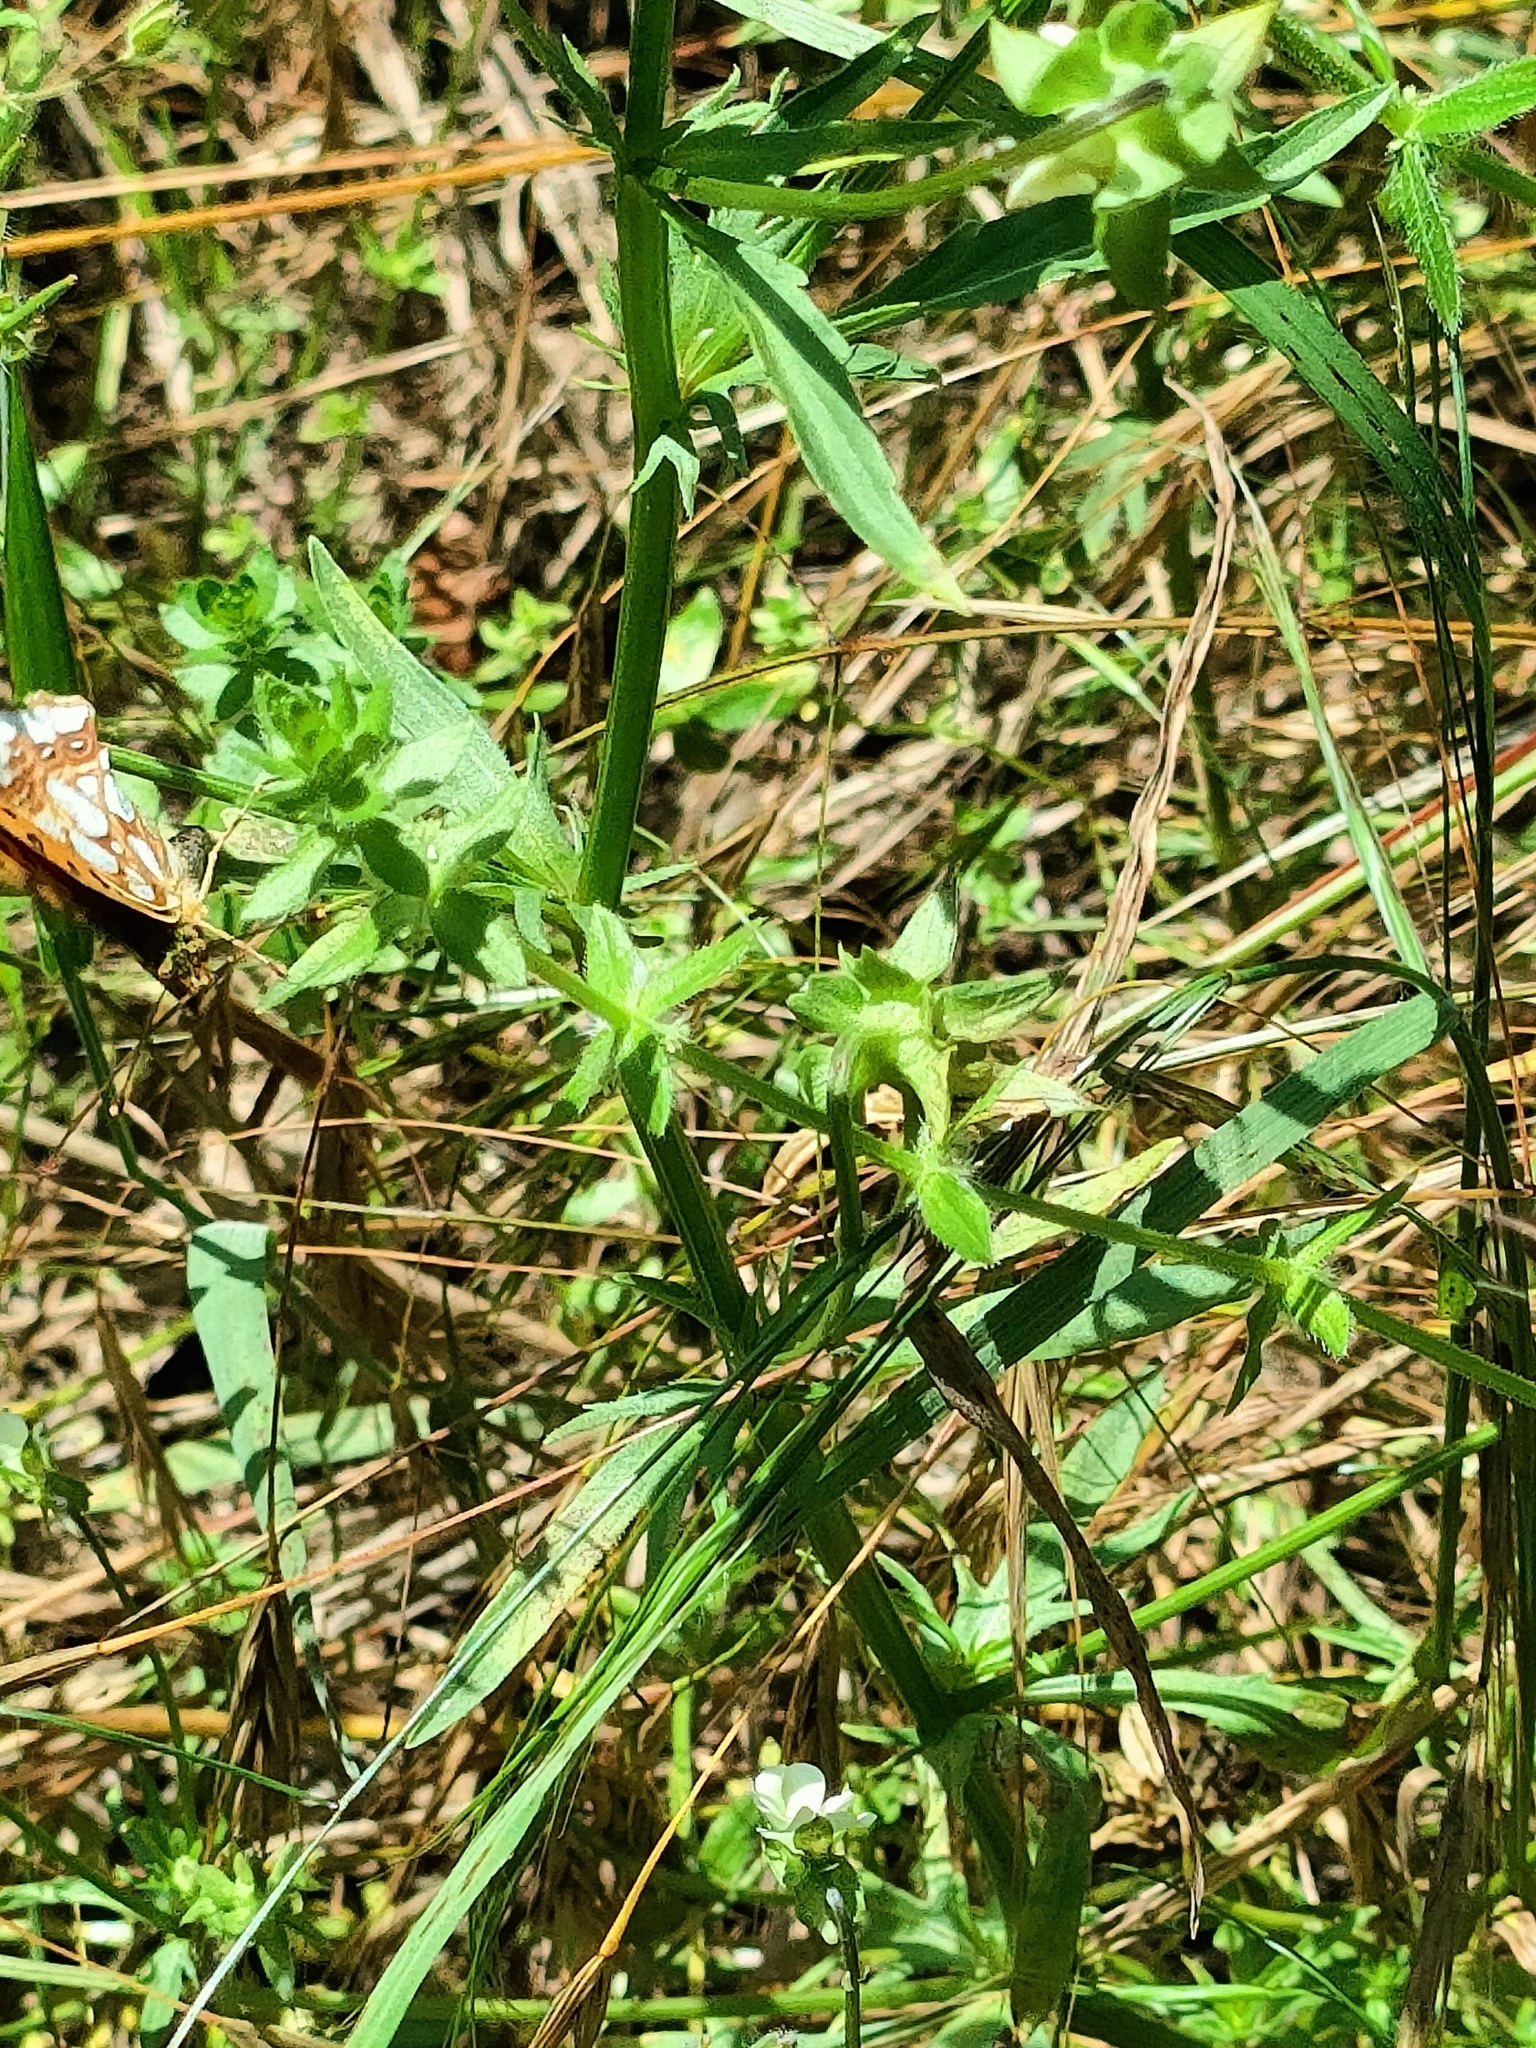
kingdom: Animalia
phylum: Arthropoda
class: Insecta
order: Lepidoptera
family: Nymphalidae
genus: Issoria
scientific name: Issoria lathonia
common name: Queen of spain fritillary
